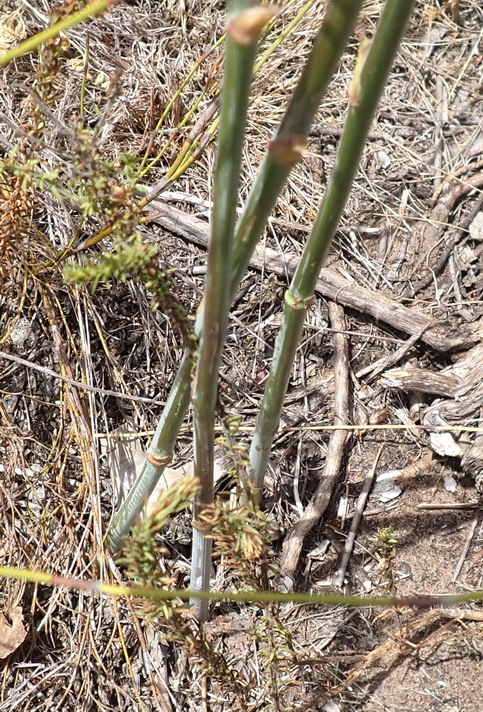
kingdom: Plantae
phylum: Tracheophyta
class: Magnoliopsida
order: Apiales
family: Apiaceae
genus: Annesorhiza
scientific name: Annesorhiza macrocarpa
